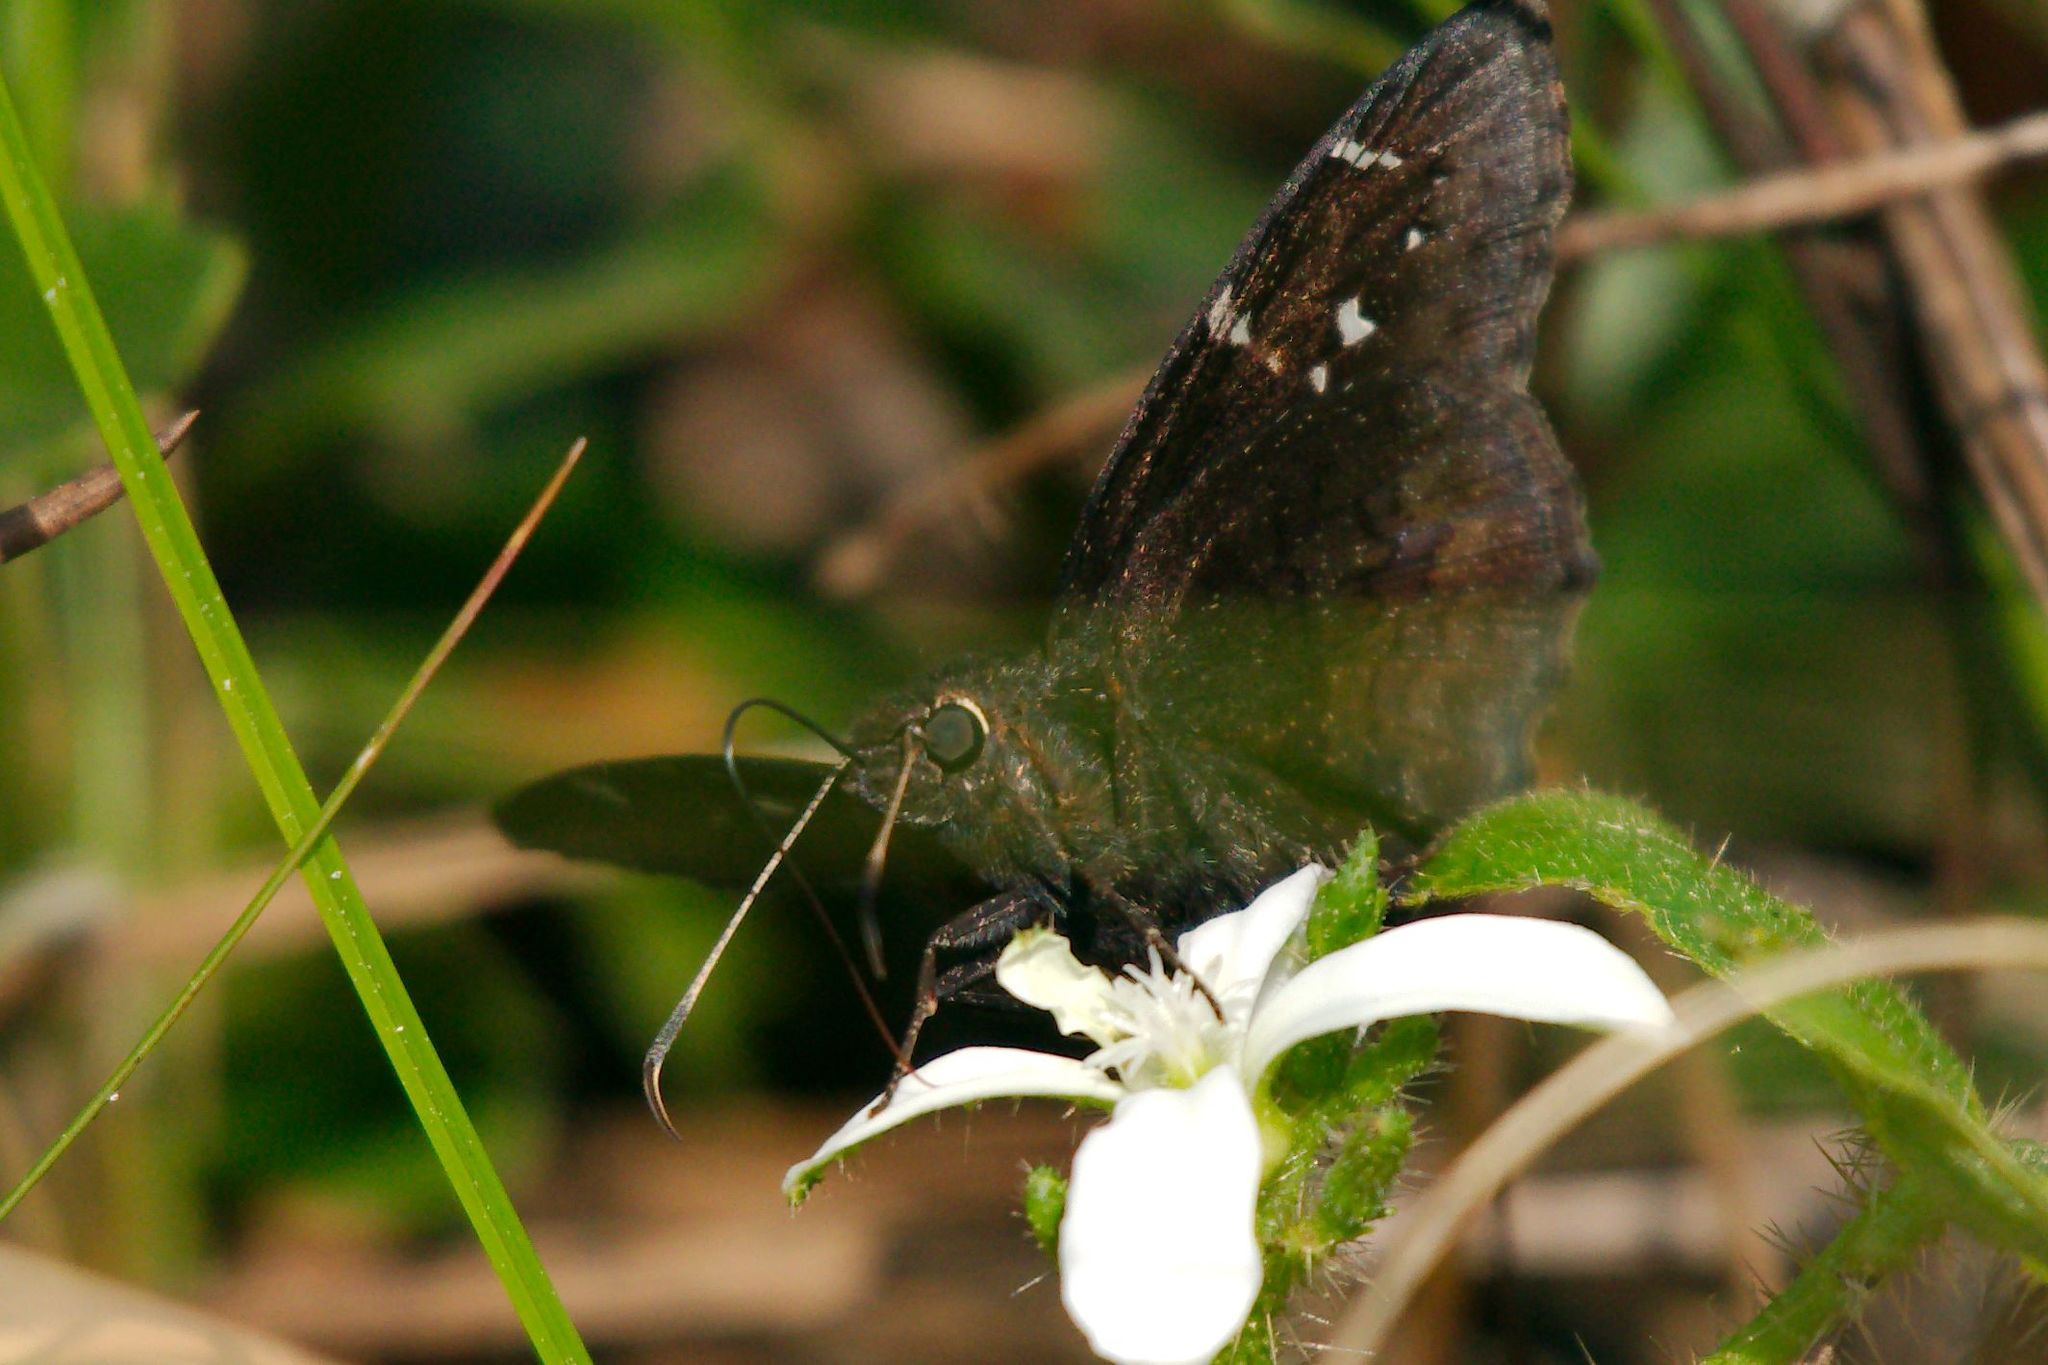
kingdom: Animalia
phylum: Arthropoda
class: Insecta
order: Lepidoptera
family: Hesperiidae
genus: Thorybes
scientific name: Thorybes pylades
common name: Northern cloudywing
